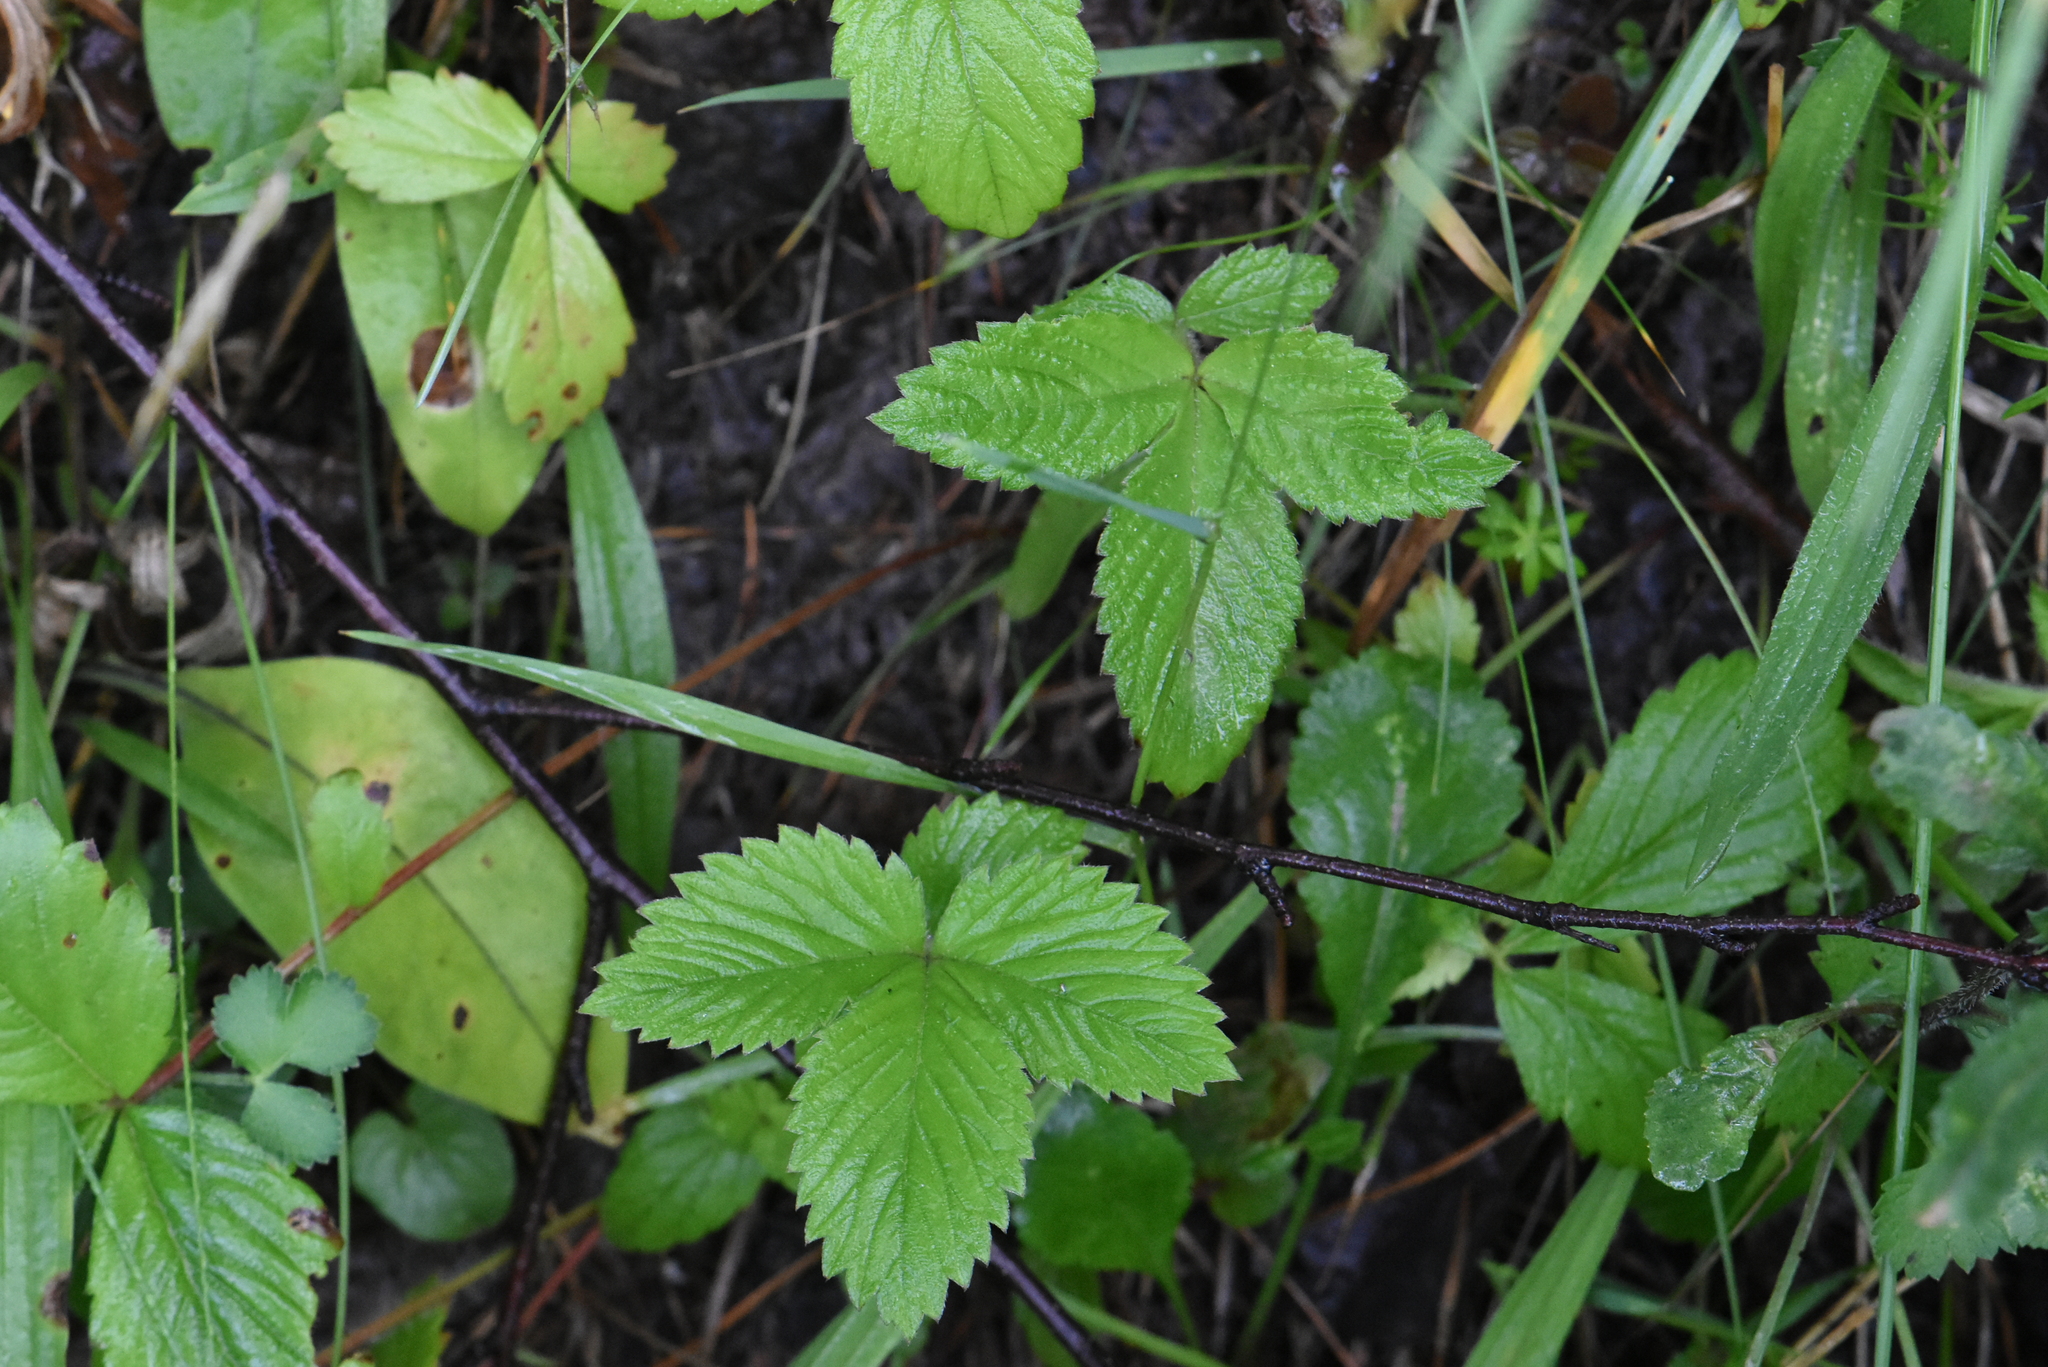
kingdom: Plantae
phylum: Tracheophyta
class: Magnoliopsida
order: Rosales
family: Rosaceae
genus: Potentilla
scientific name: Potentilla fragarioides
